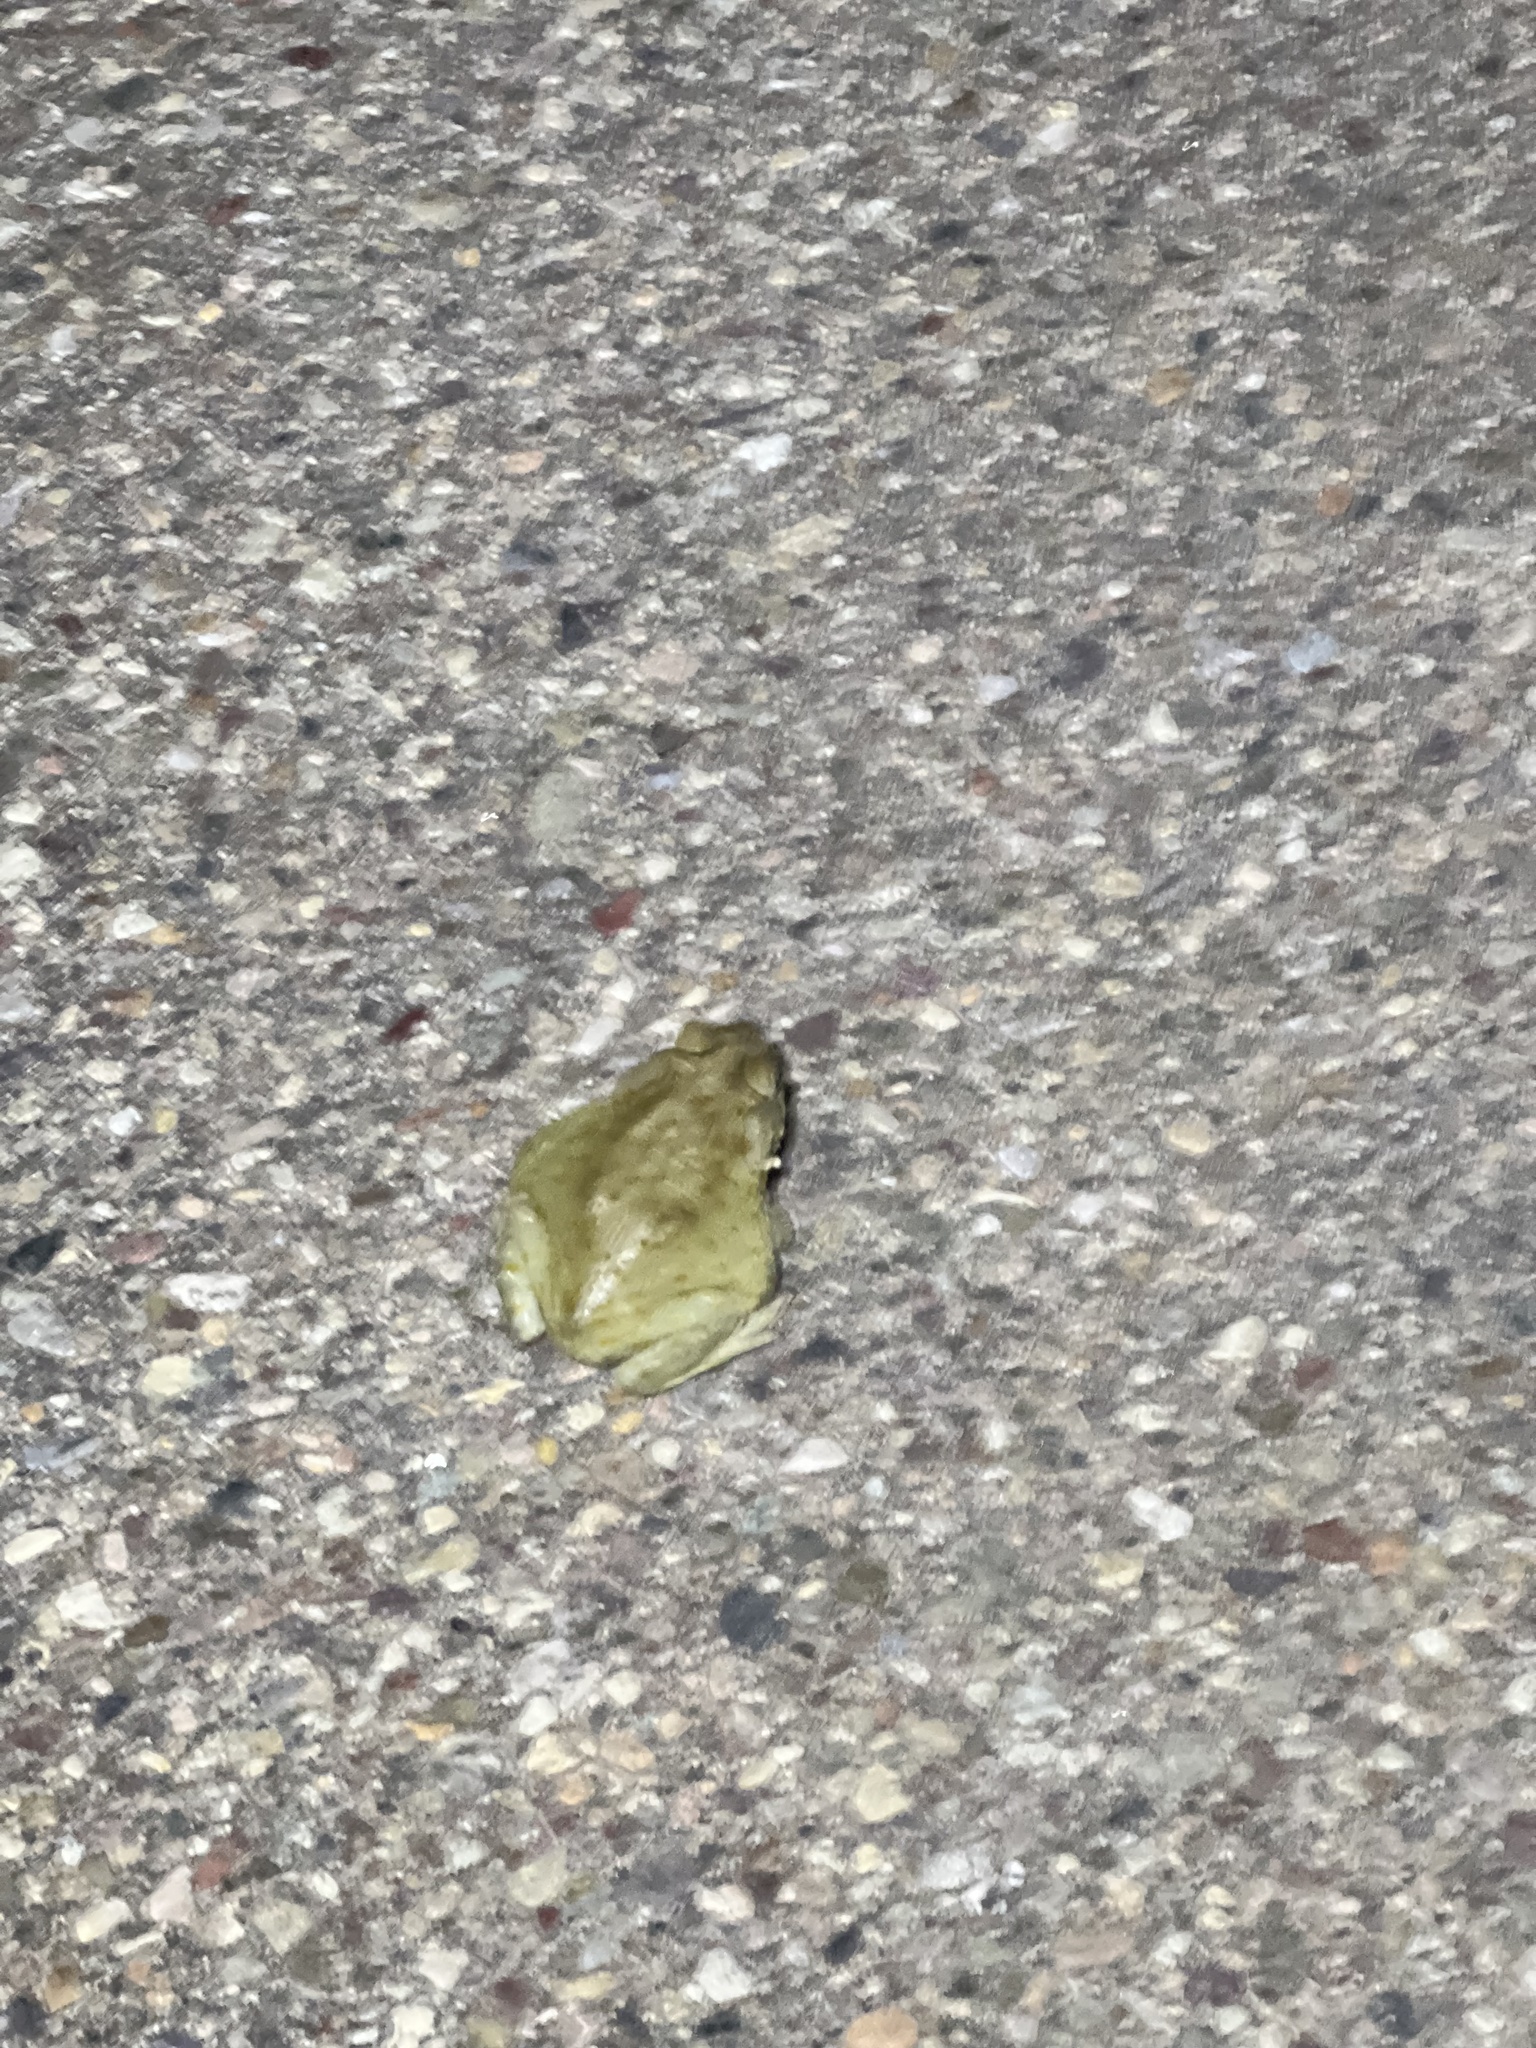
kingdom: Animalia
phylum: Chordata
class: Amphibia
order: Anura
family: Bufonidae
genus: Incilius
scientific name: Incilius alvarius
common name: Sonoran desert toad
